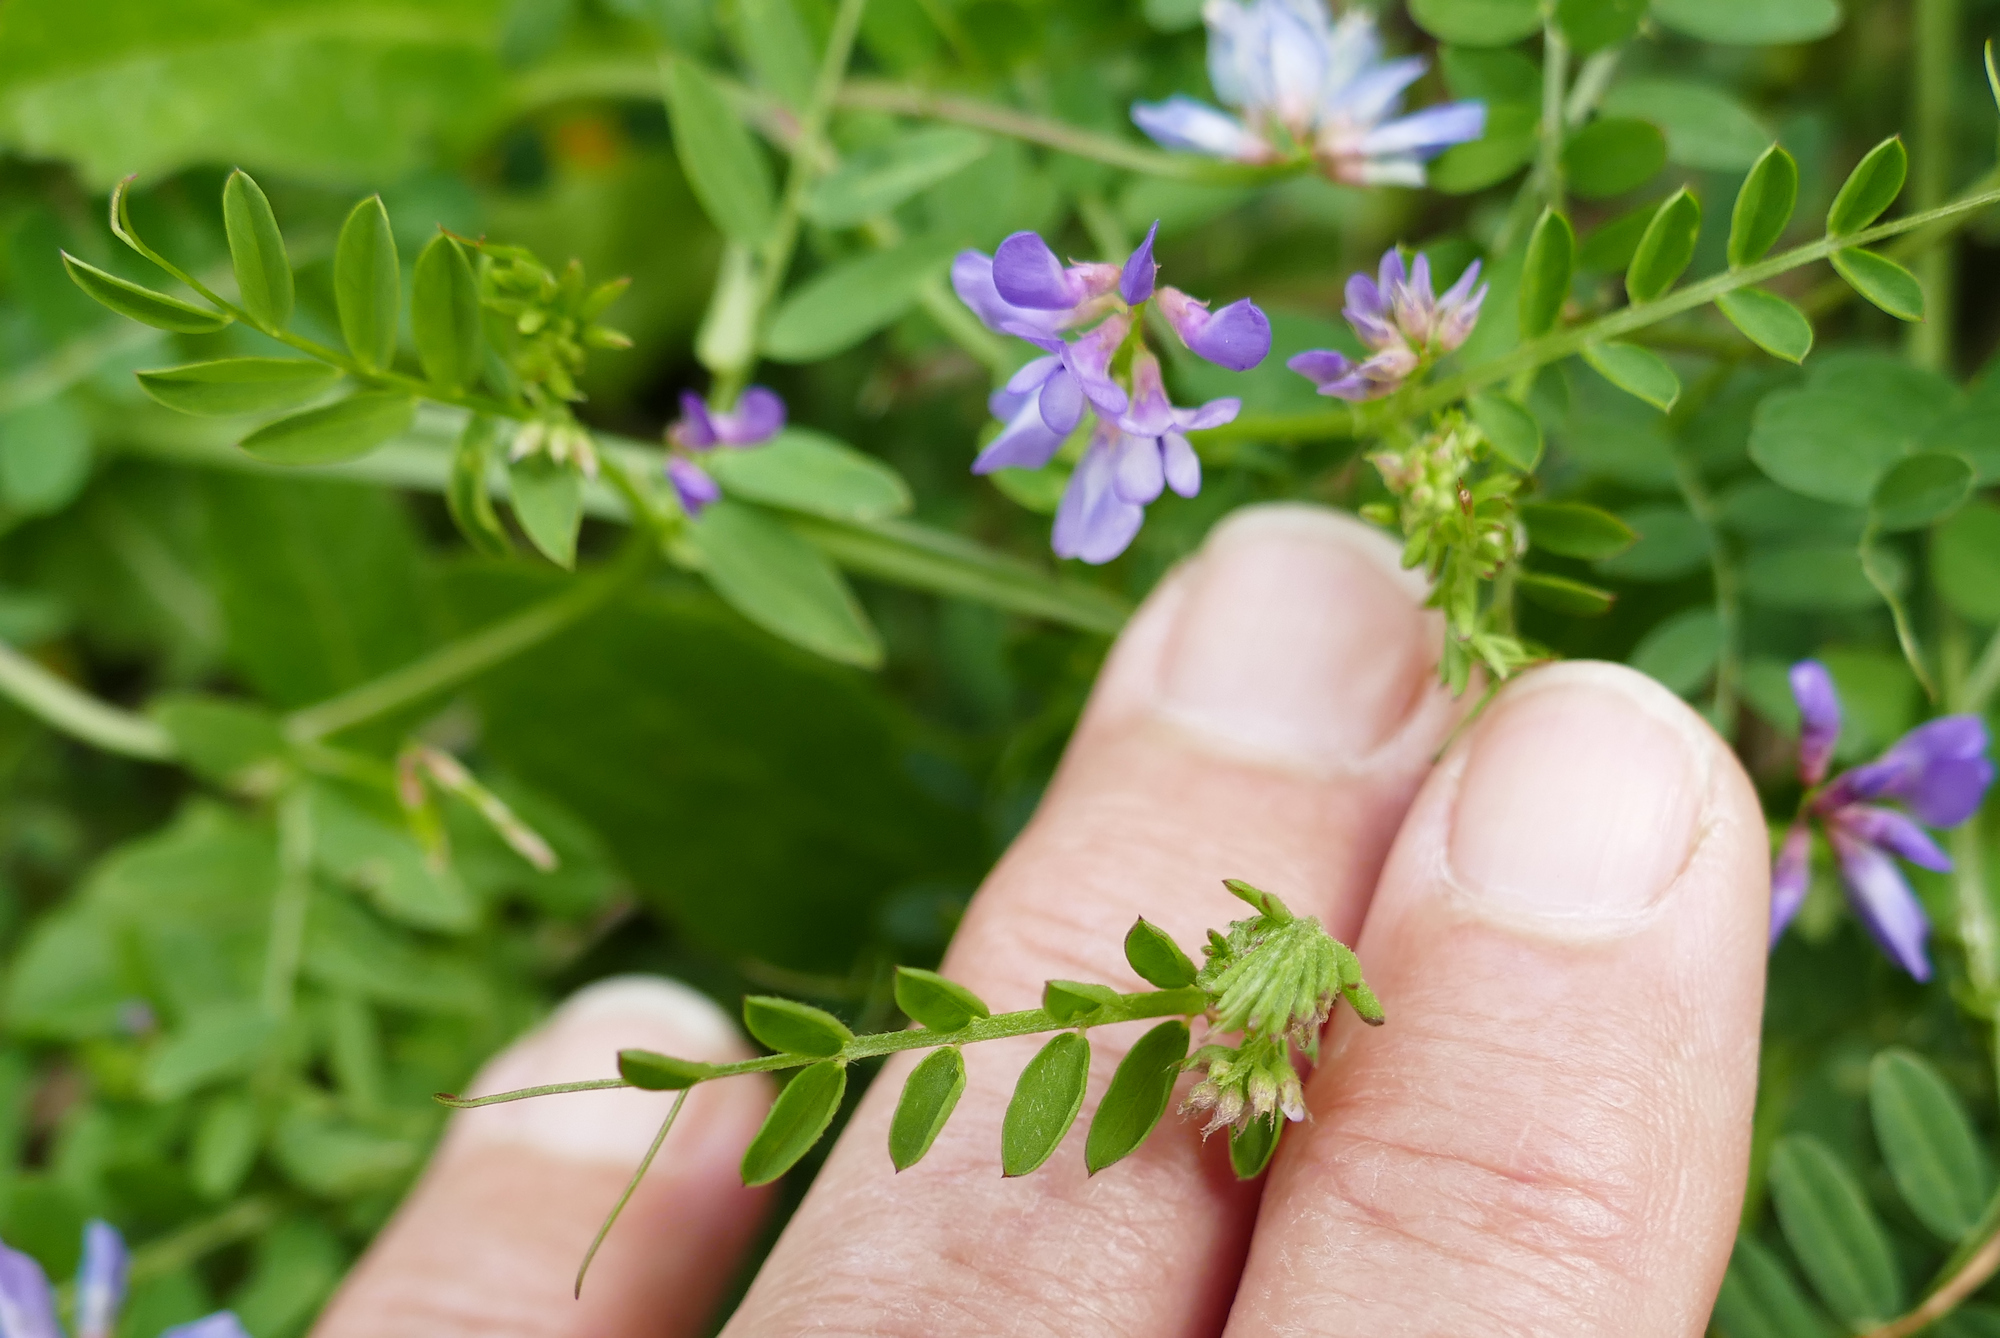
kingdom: Plantae
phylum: Tracheophyta
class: Magnoliopsida
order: Fabales
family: Fabaceae
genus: Vicia
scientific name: Vicia ludoviciana
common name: Louisiana vetch
